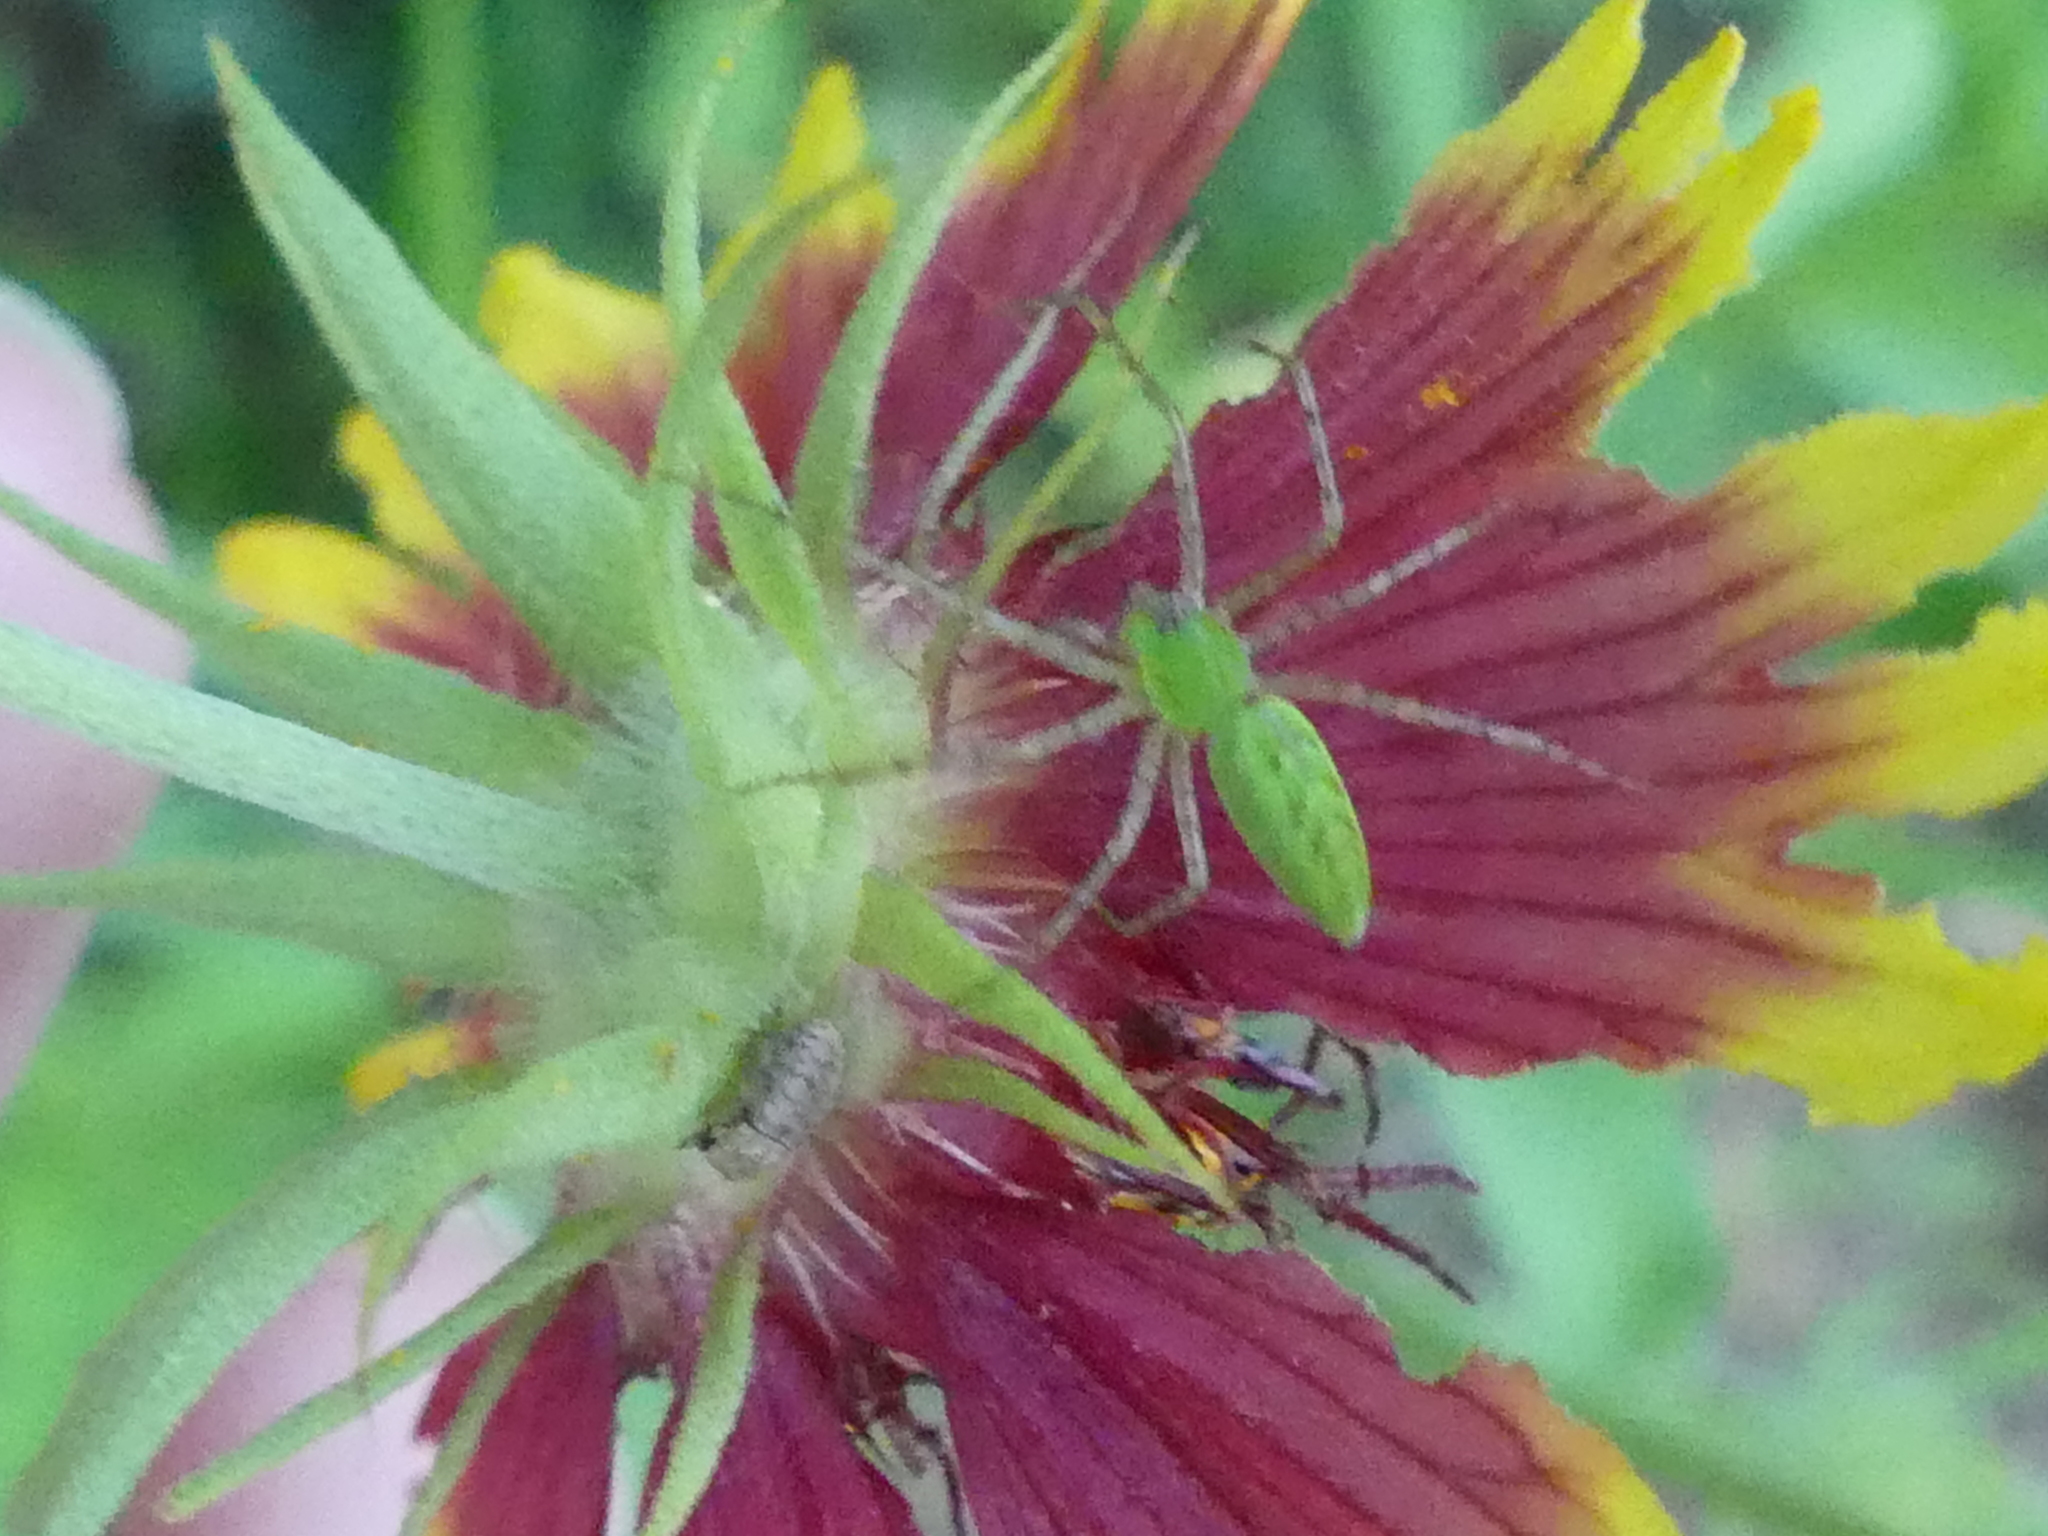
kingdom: Animalia
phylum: Arthropoda
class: Arachnida
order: Araneae
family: Oxyopidae
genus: Peucetia
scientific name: Peucetia viridans
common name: Lynx spiders
